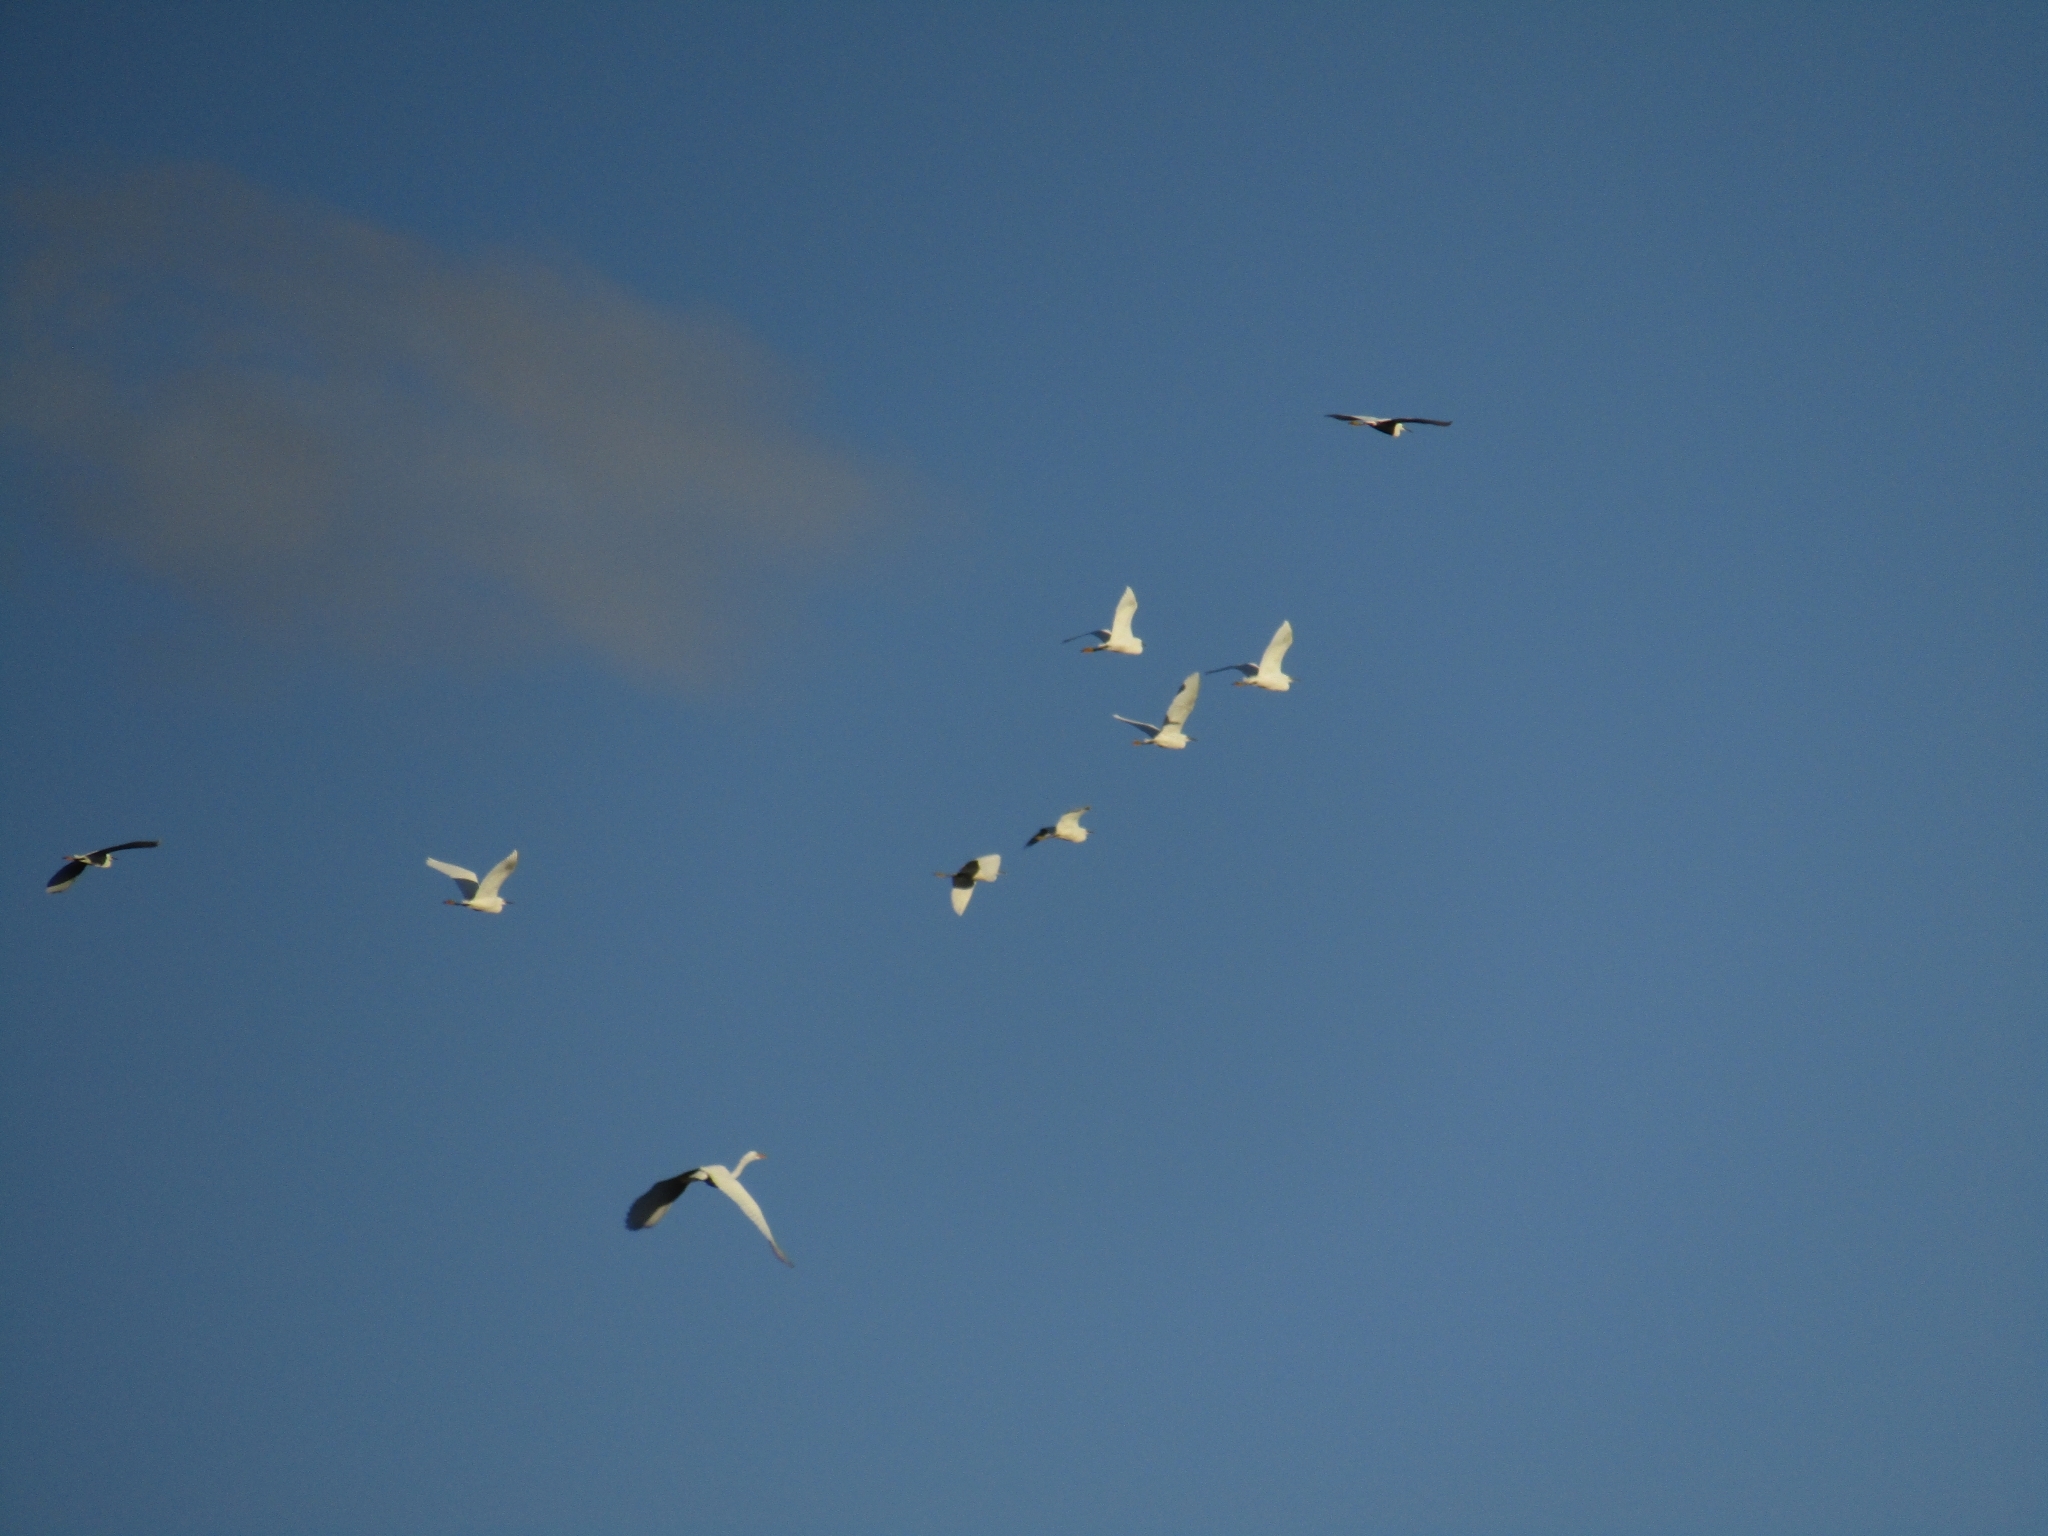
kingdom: Animalia
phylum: Chordata
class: Aves
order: Pelecaniformes
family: Ardeidae
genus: Egretta
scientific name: Egretta thula
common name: Snowy egret
